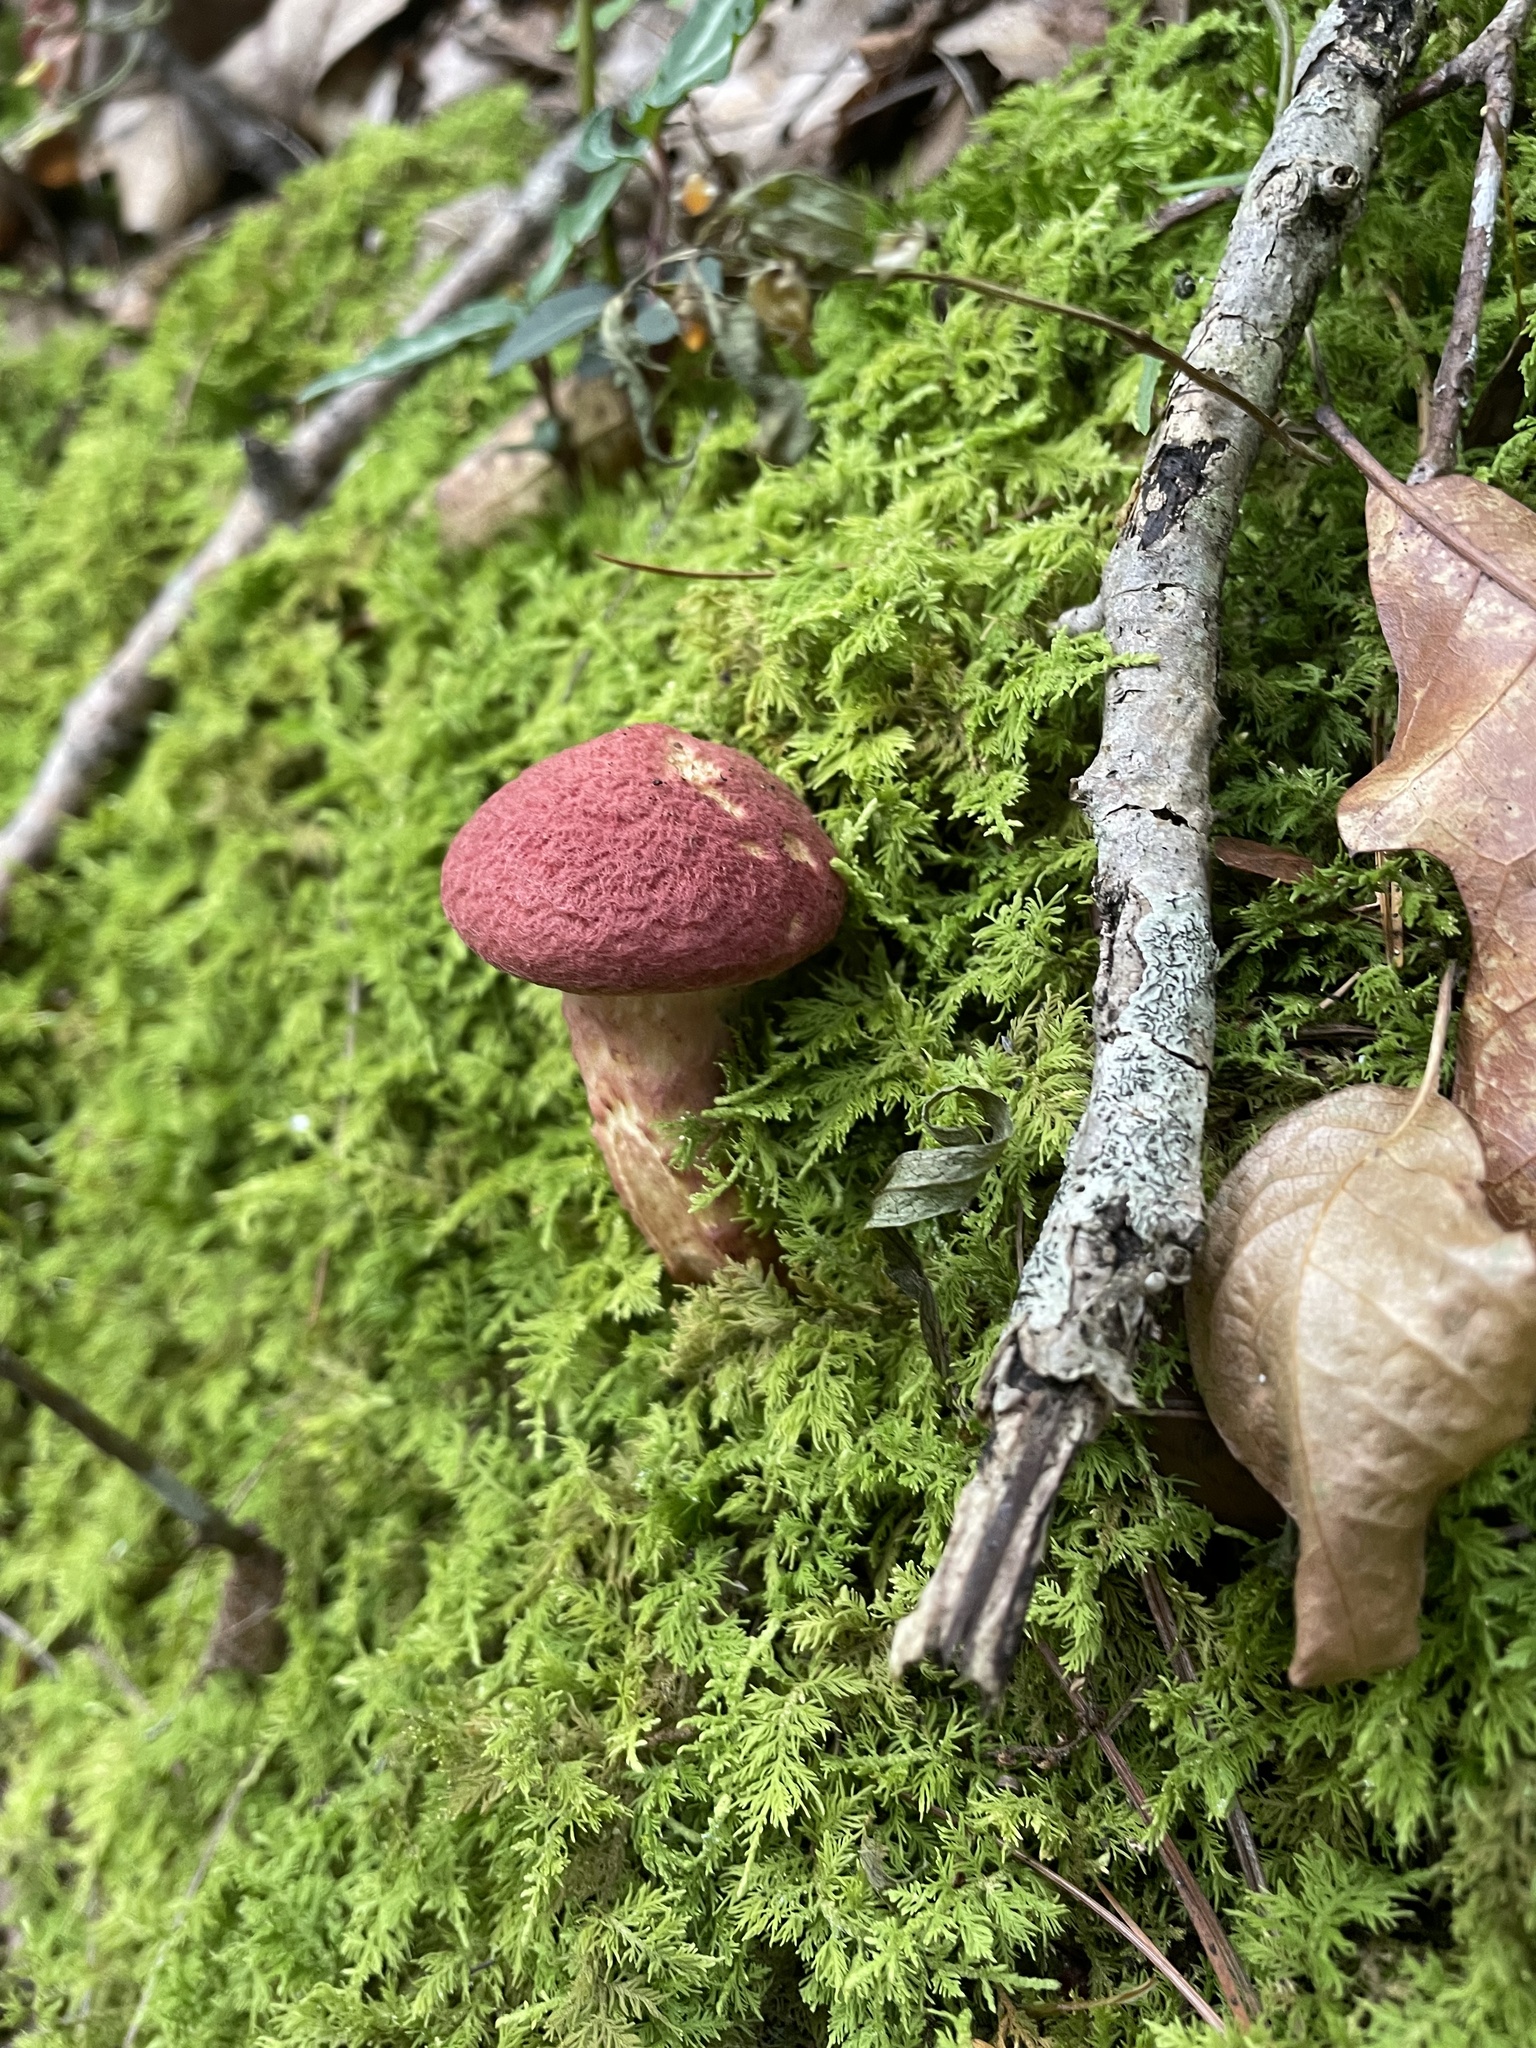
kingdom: Fungi
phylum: Basidiomycota
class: Agaricomycetes
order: Boletales
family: Suillaceae
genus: Suillus
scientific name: Suillus spraguei
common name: Painted suillus
